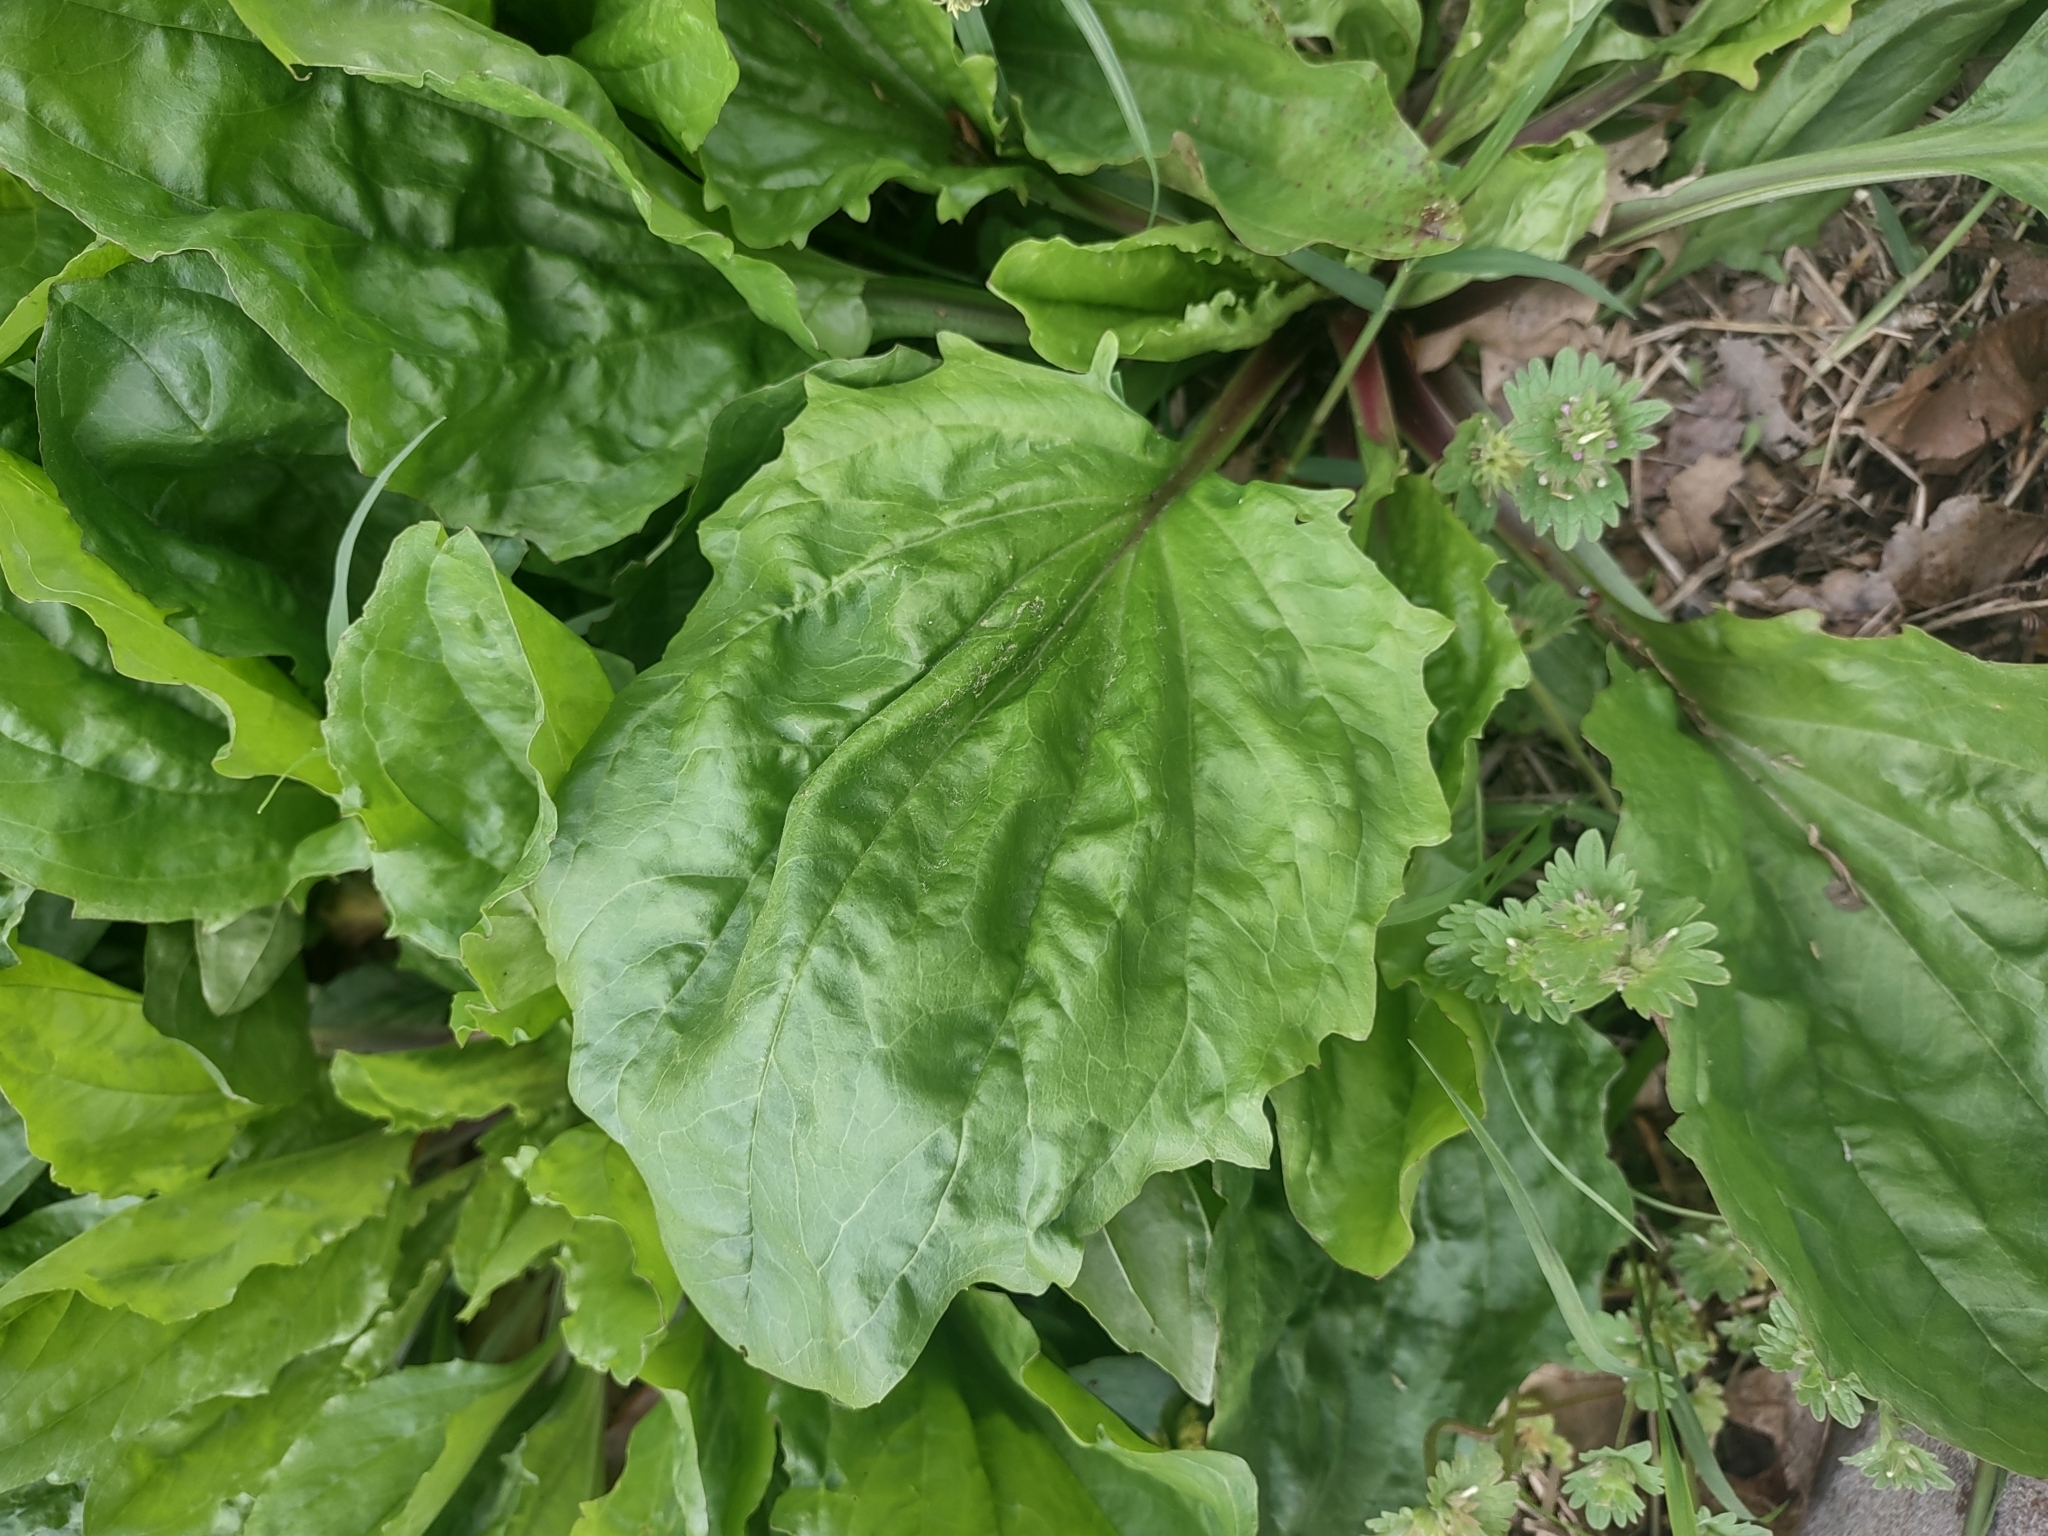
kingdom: Plantae
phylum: Tracheophyta
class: Magnoliopsida
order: Lamiales
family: Plantaginaceae
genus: Plantago
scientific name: Plantago rugelii
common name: American plantain
